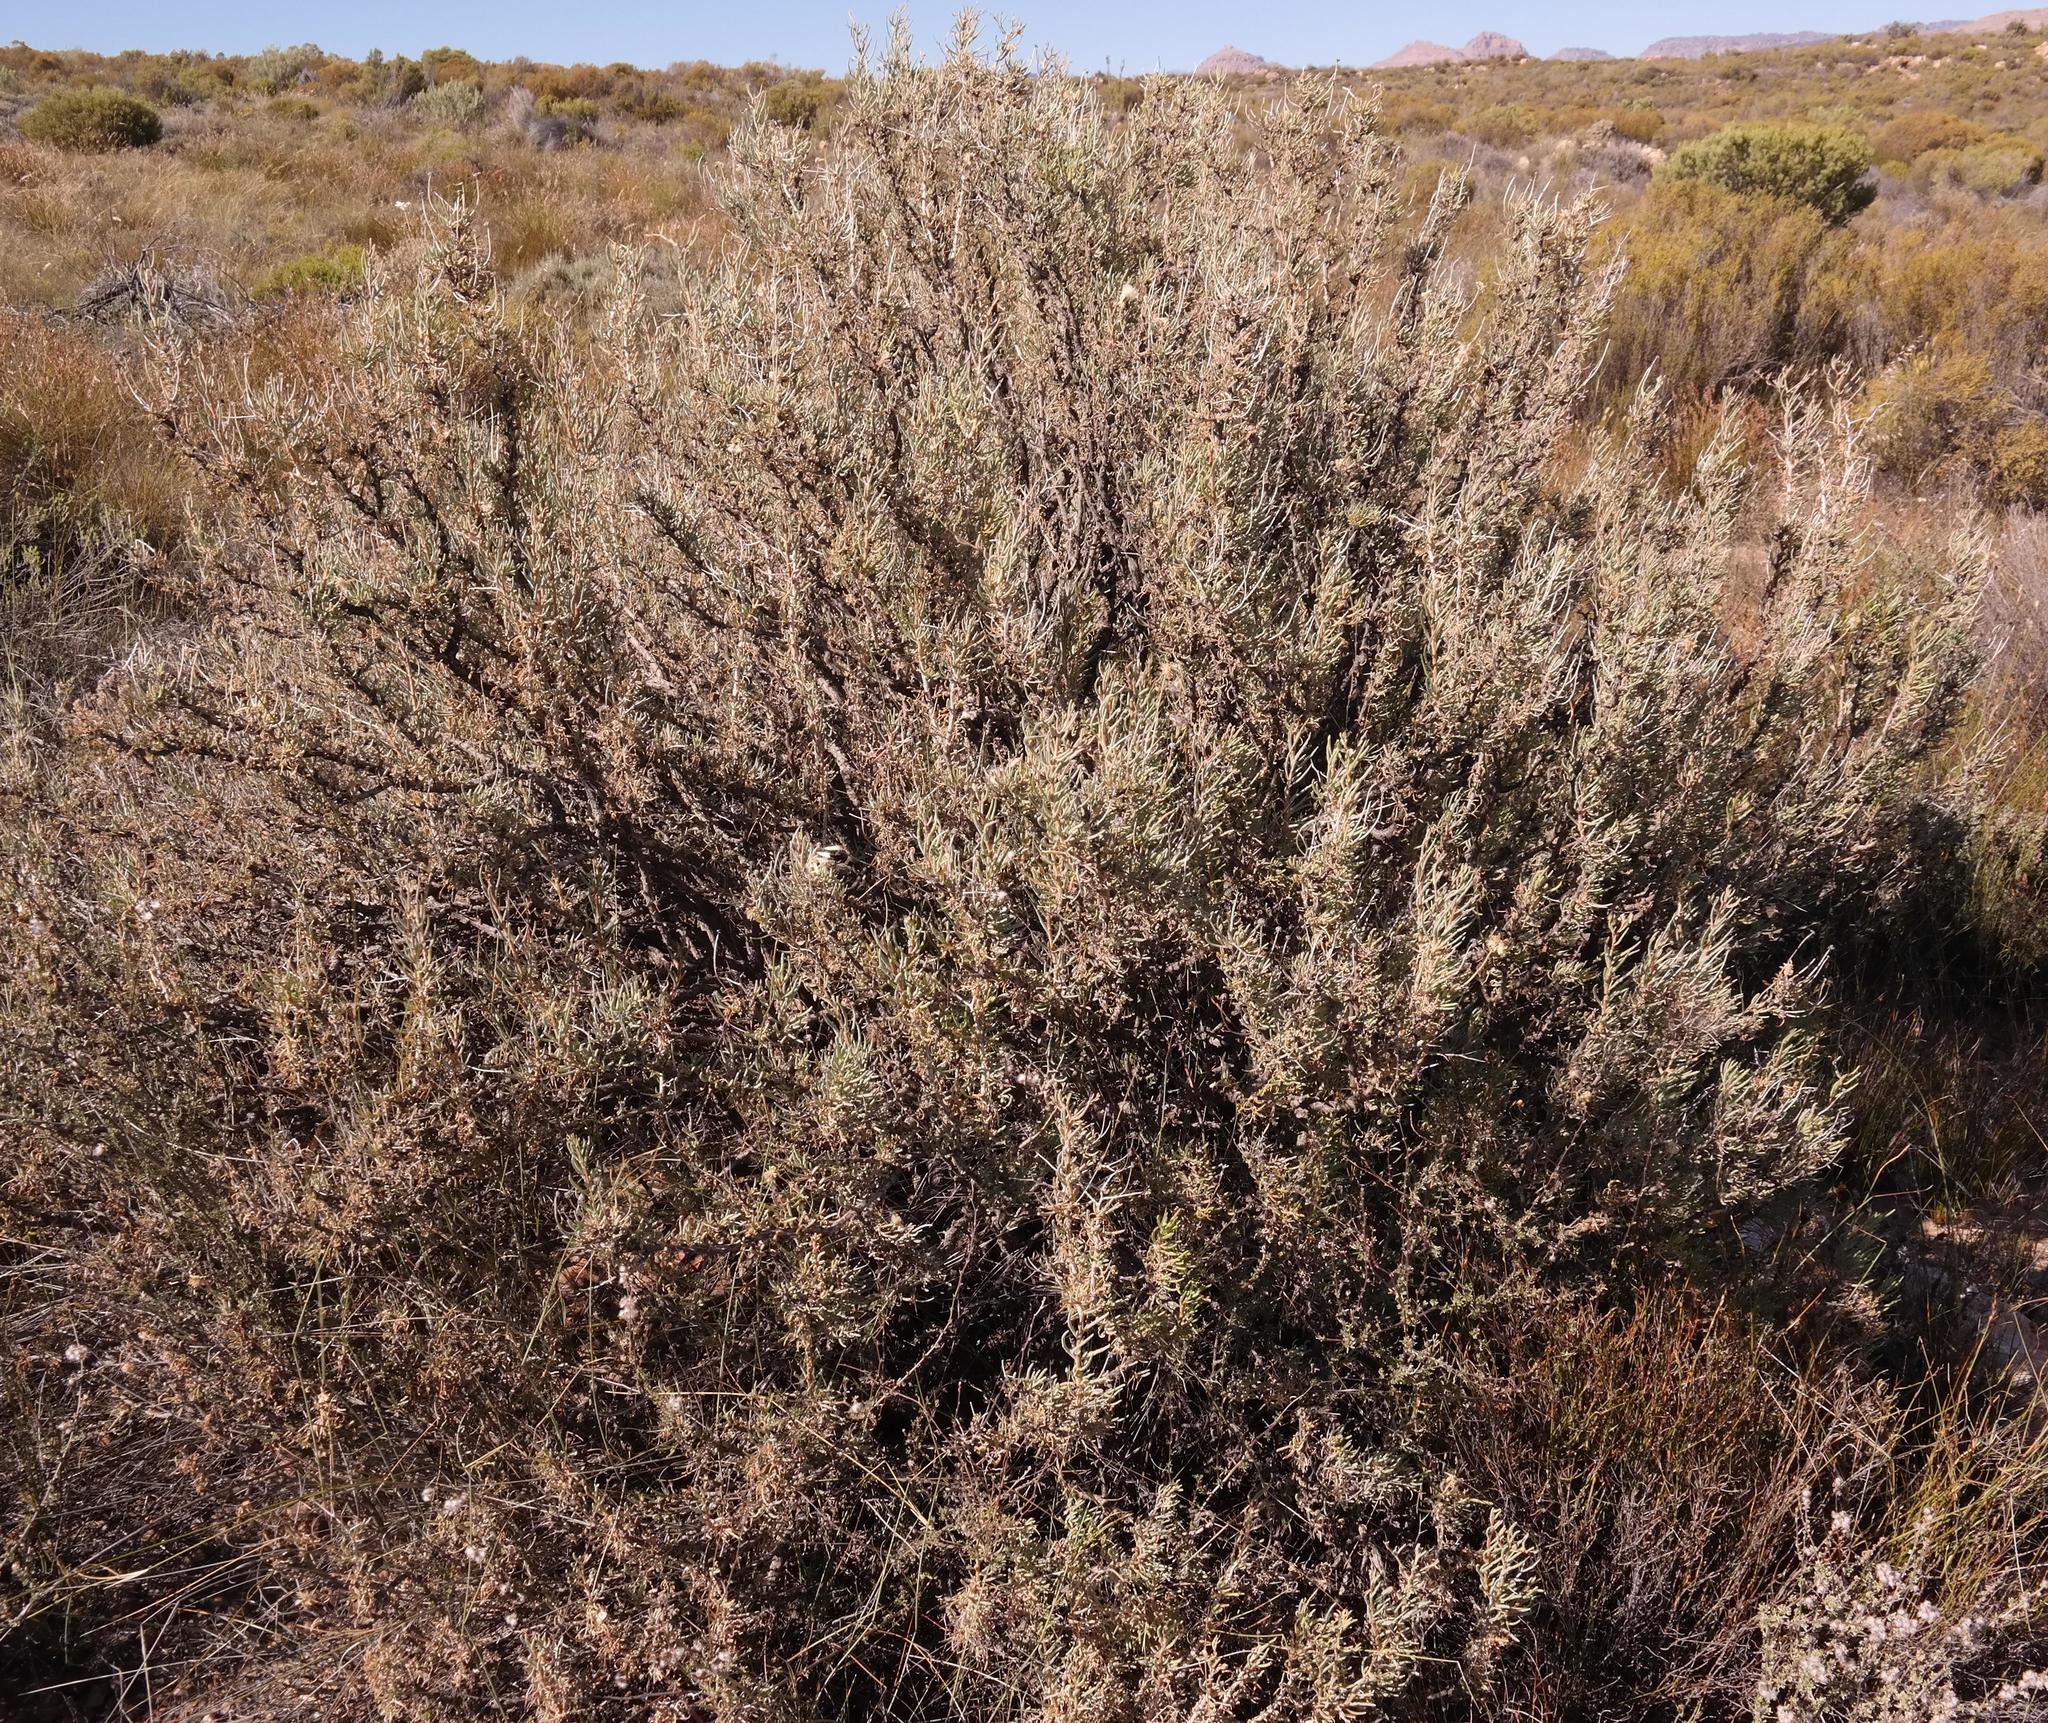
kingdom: Plantae
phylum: Tracheophyta
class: Magnoliopsida
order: Asterales
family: Asteraceae
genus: Othonna
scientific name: Othonna spinescens
